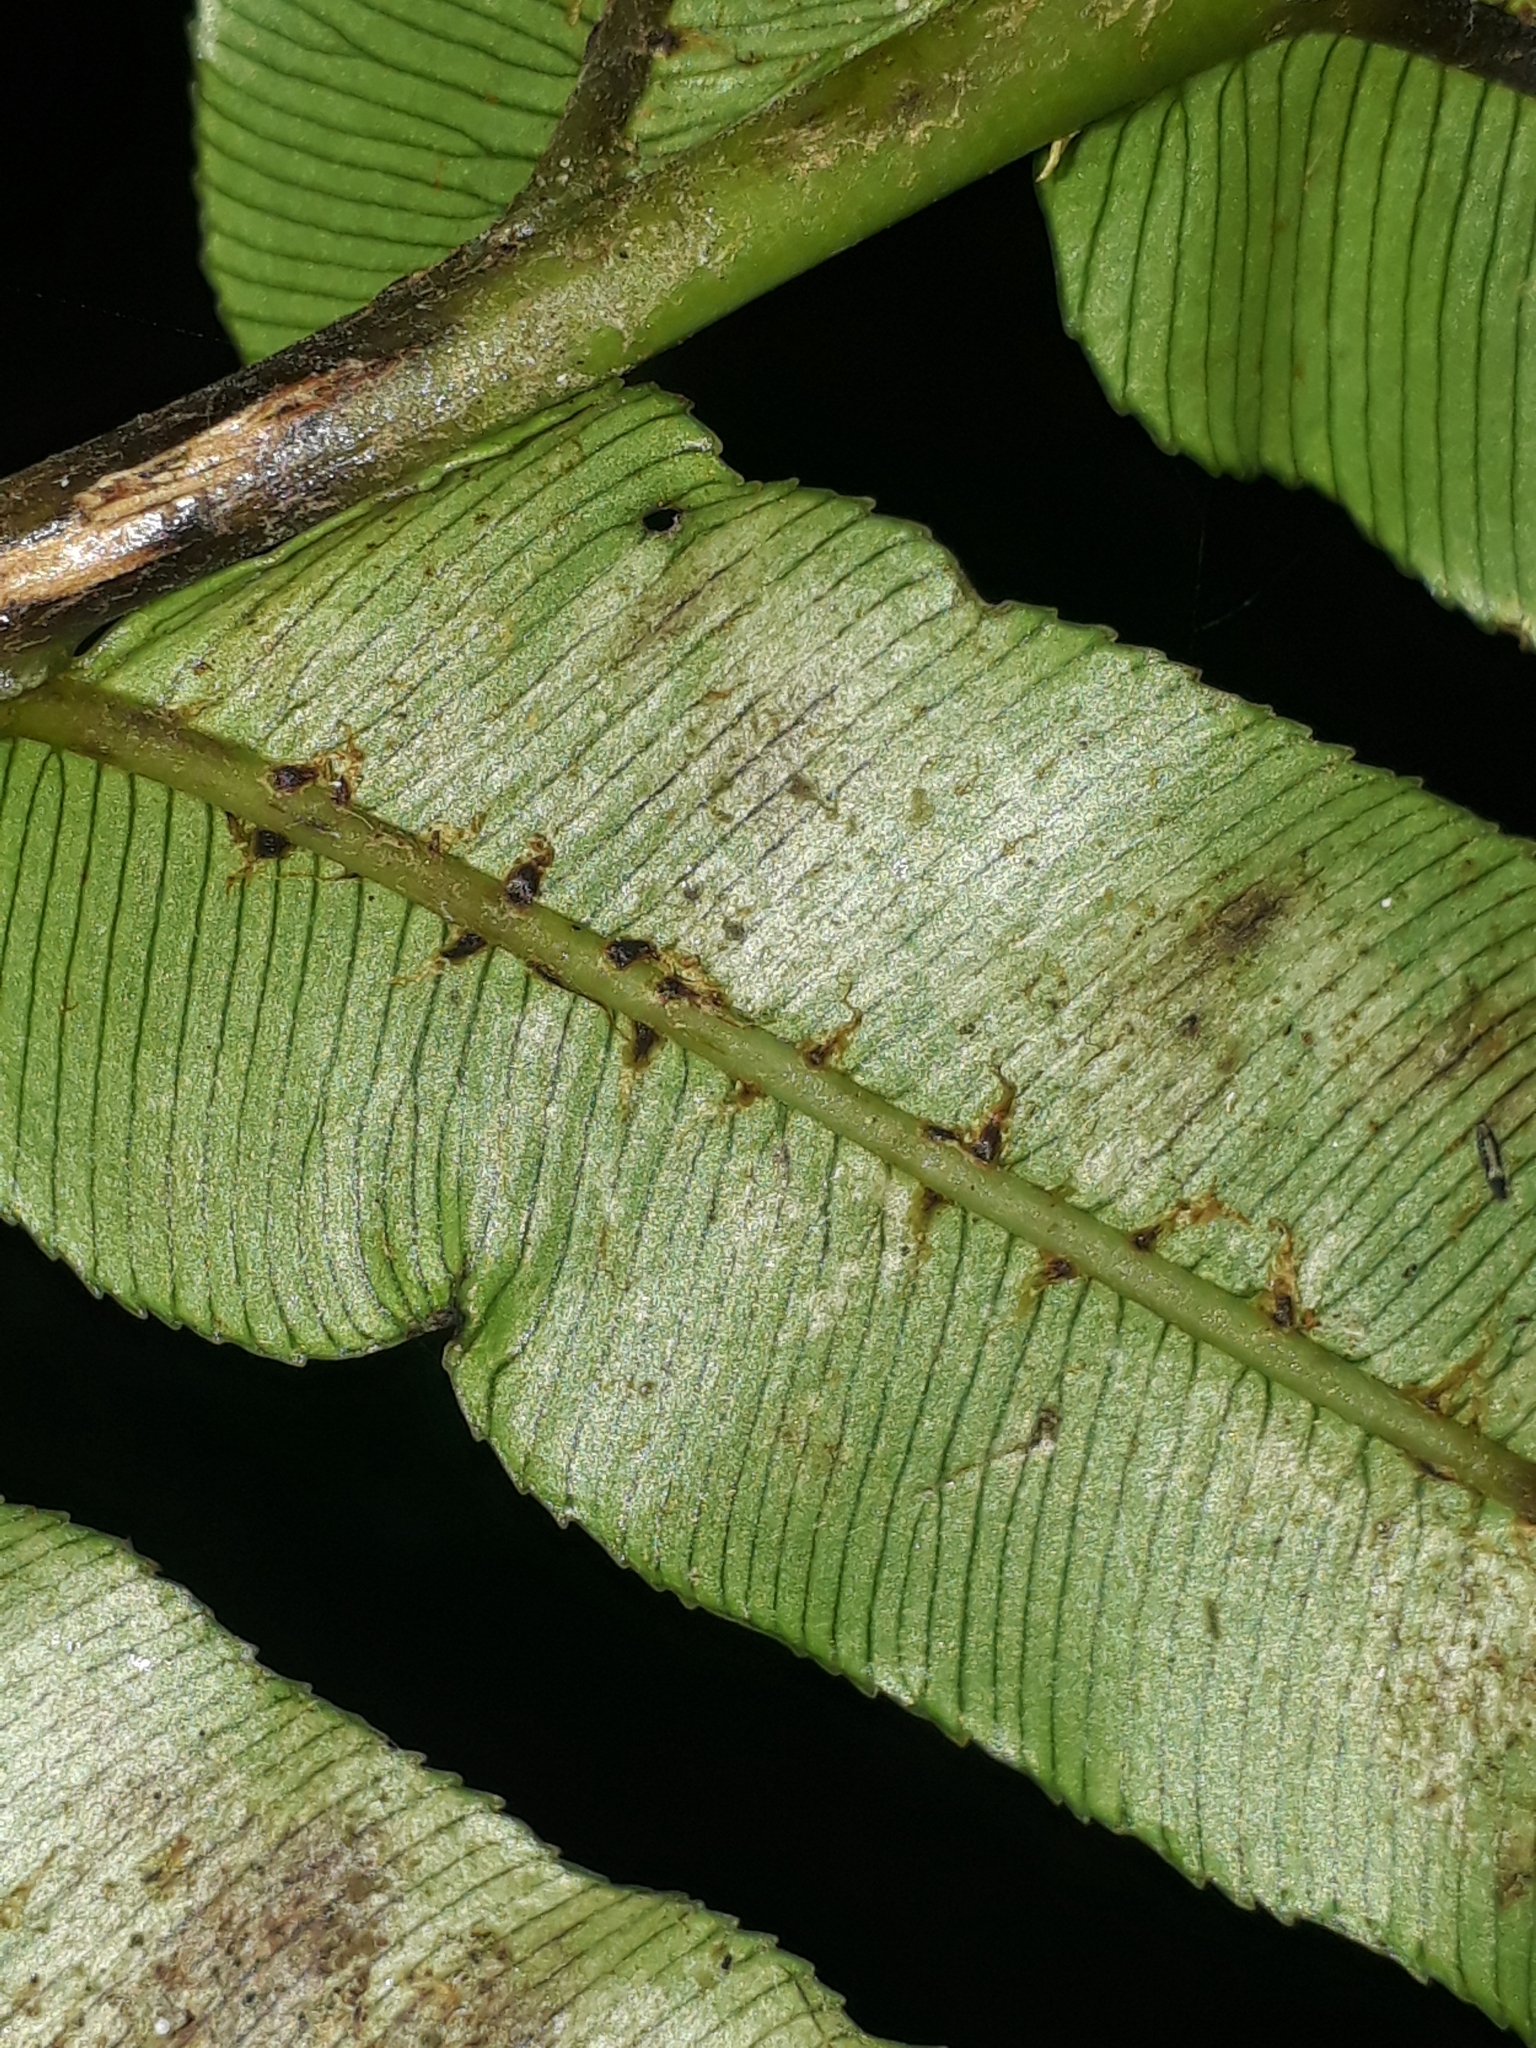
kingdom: Plantae
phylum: Tracheophyta
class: Polypodiopsida
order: Polypodiales
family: Blechnaceae
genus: Parablechnum
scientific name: Parablechnum triangularifolium
